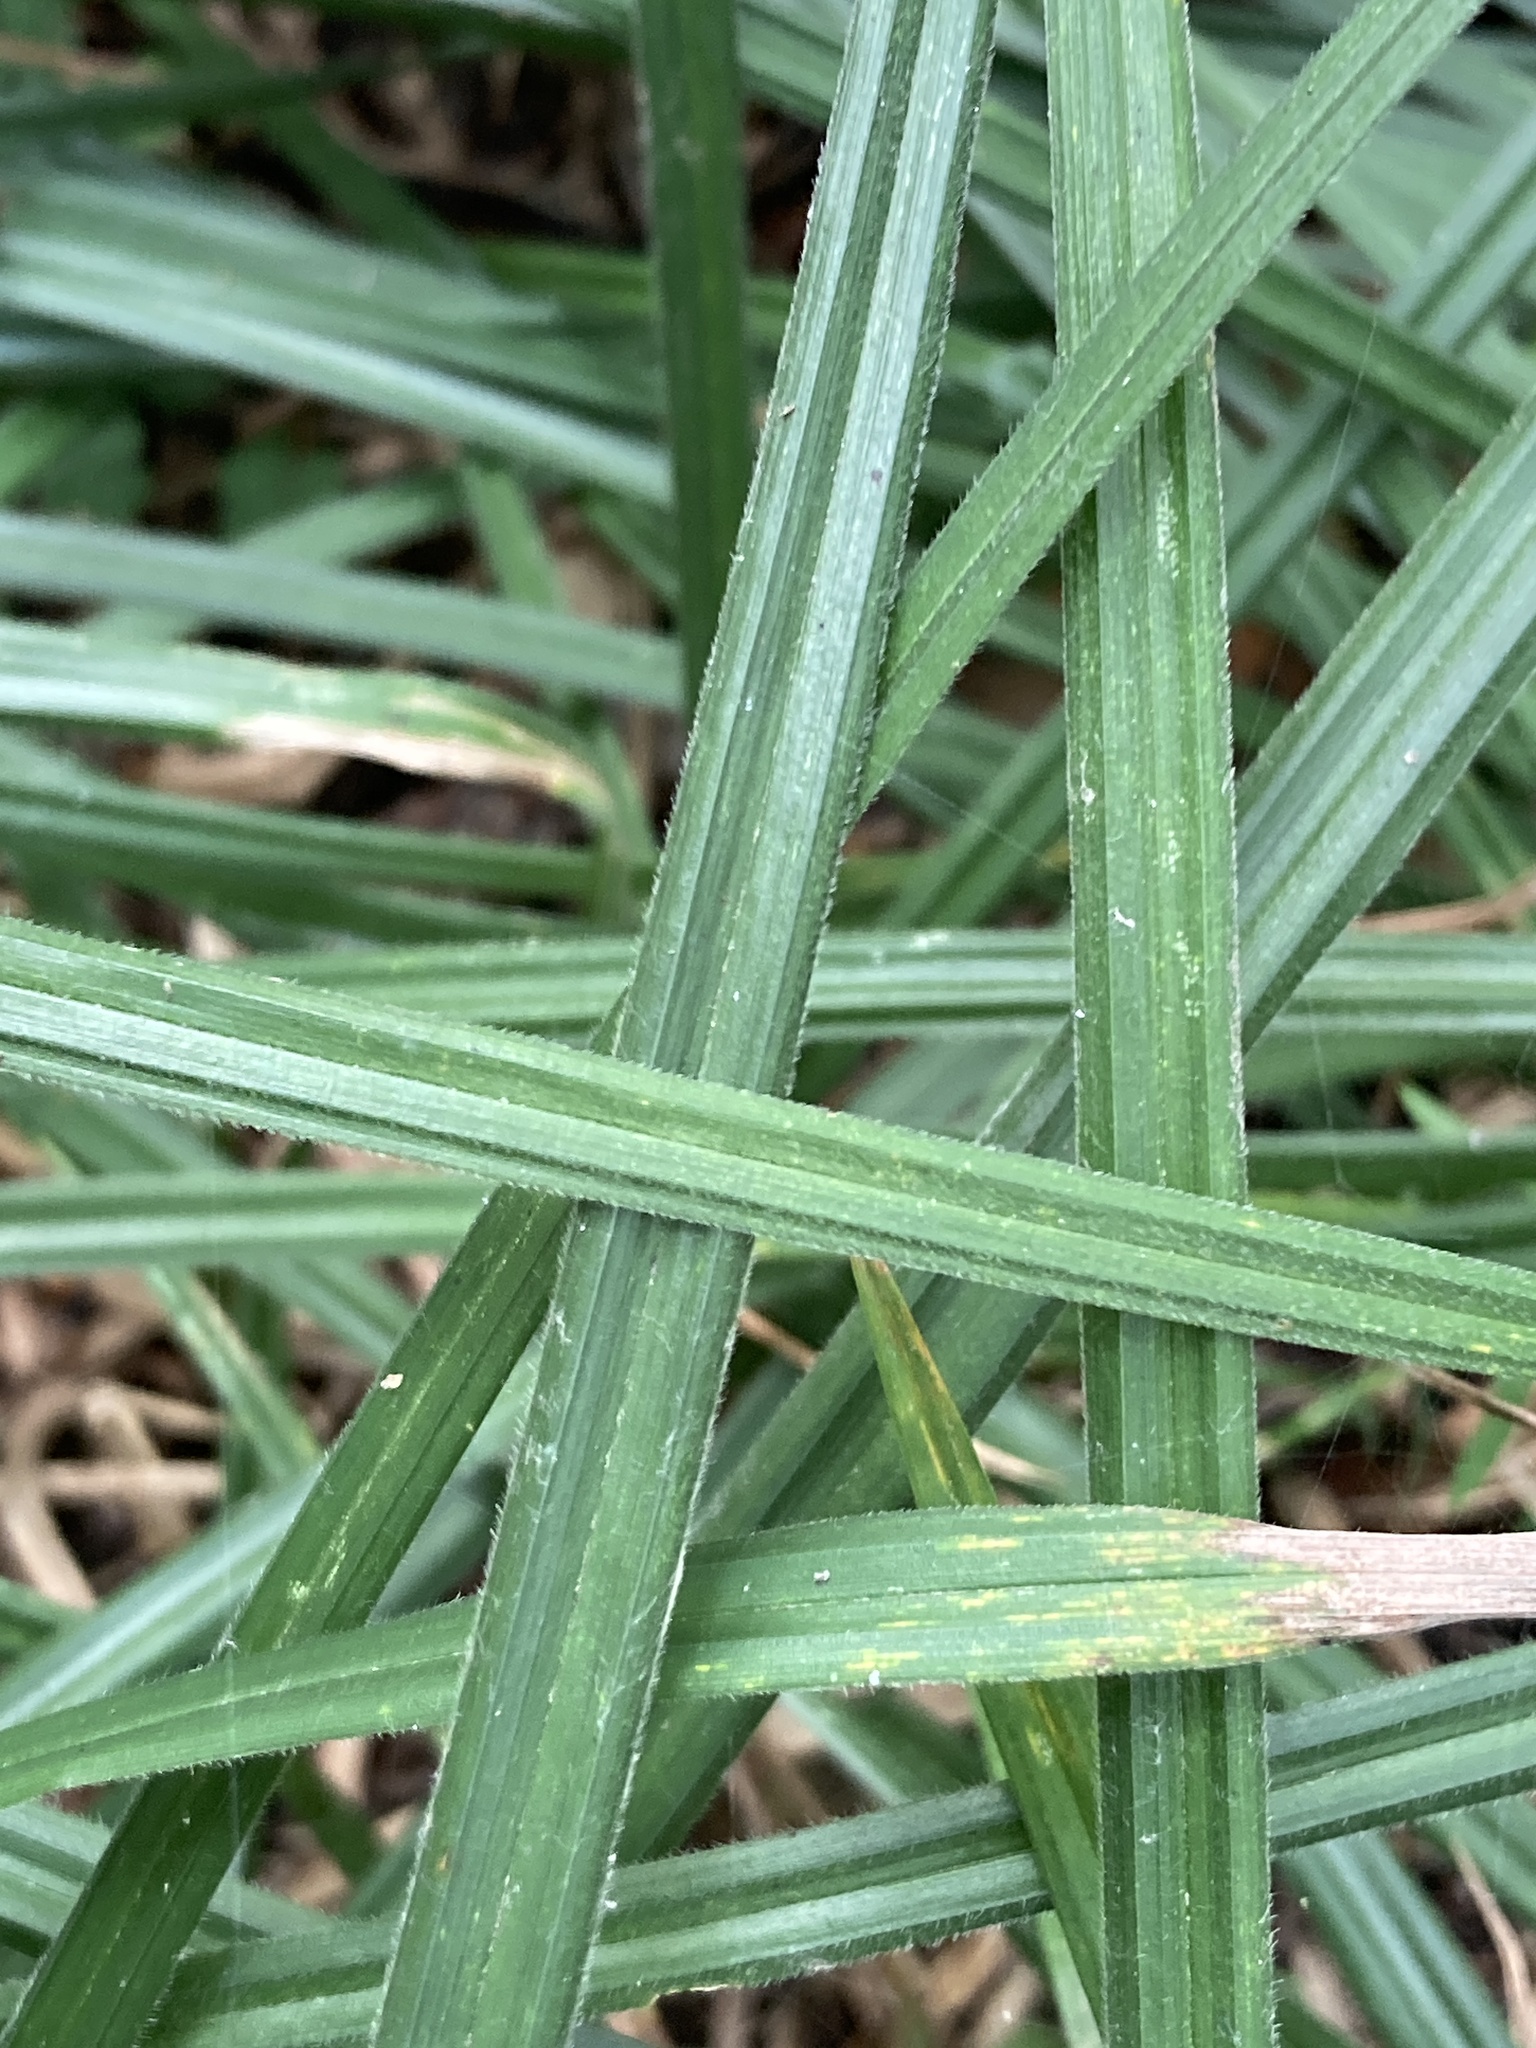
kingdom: Plantae
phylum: Tracheophyta
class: Liliopsida
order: Poales
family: Cyperaceae
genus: Carex
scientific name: Carex pilosa
